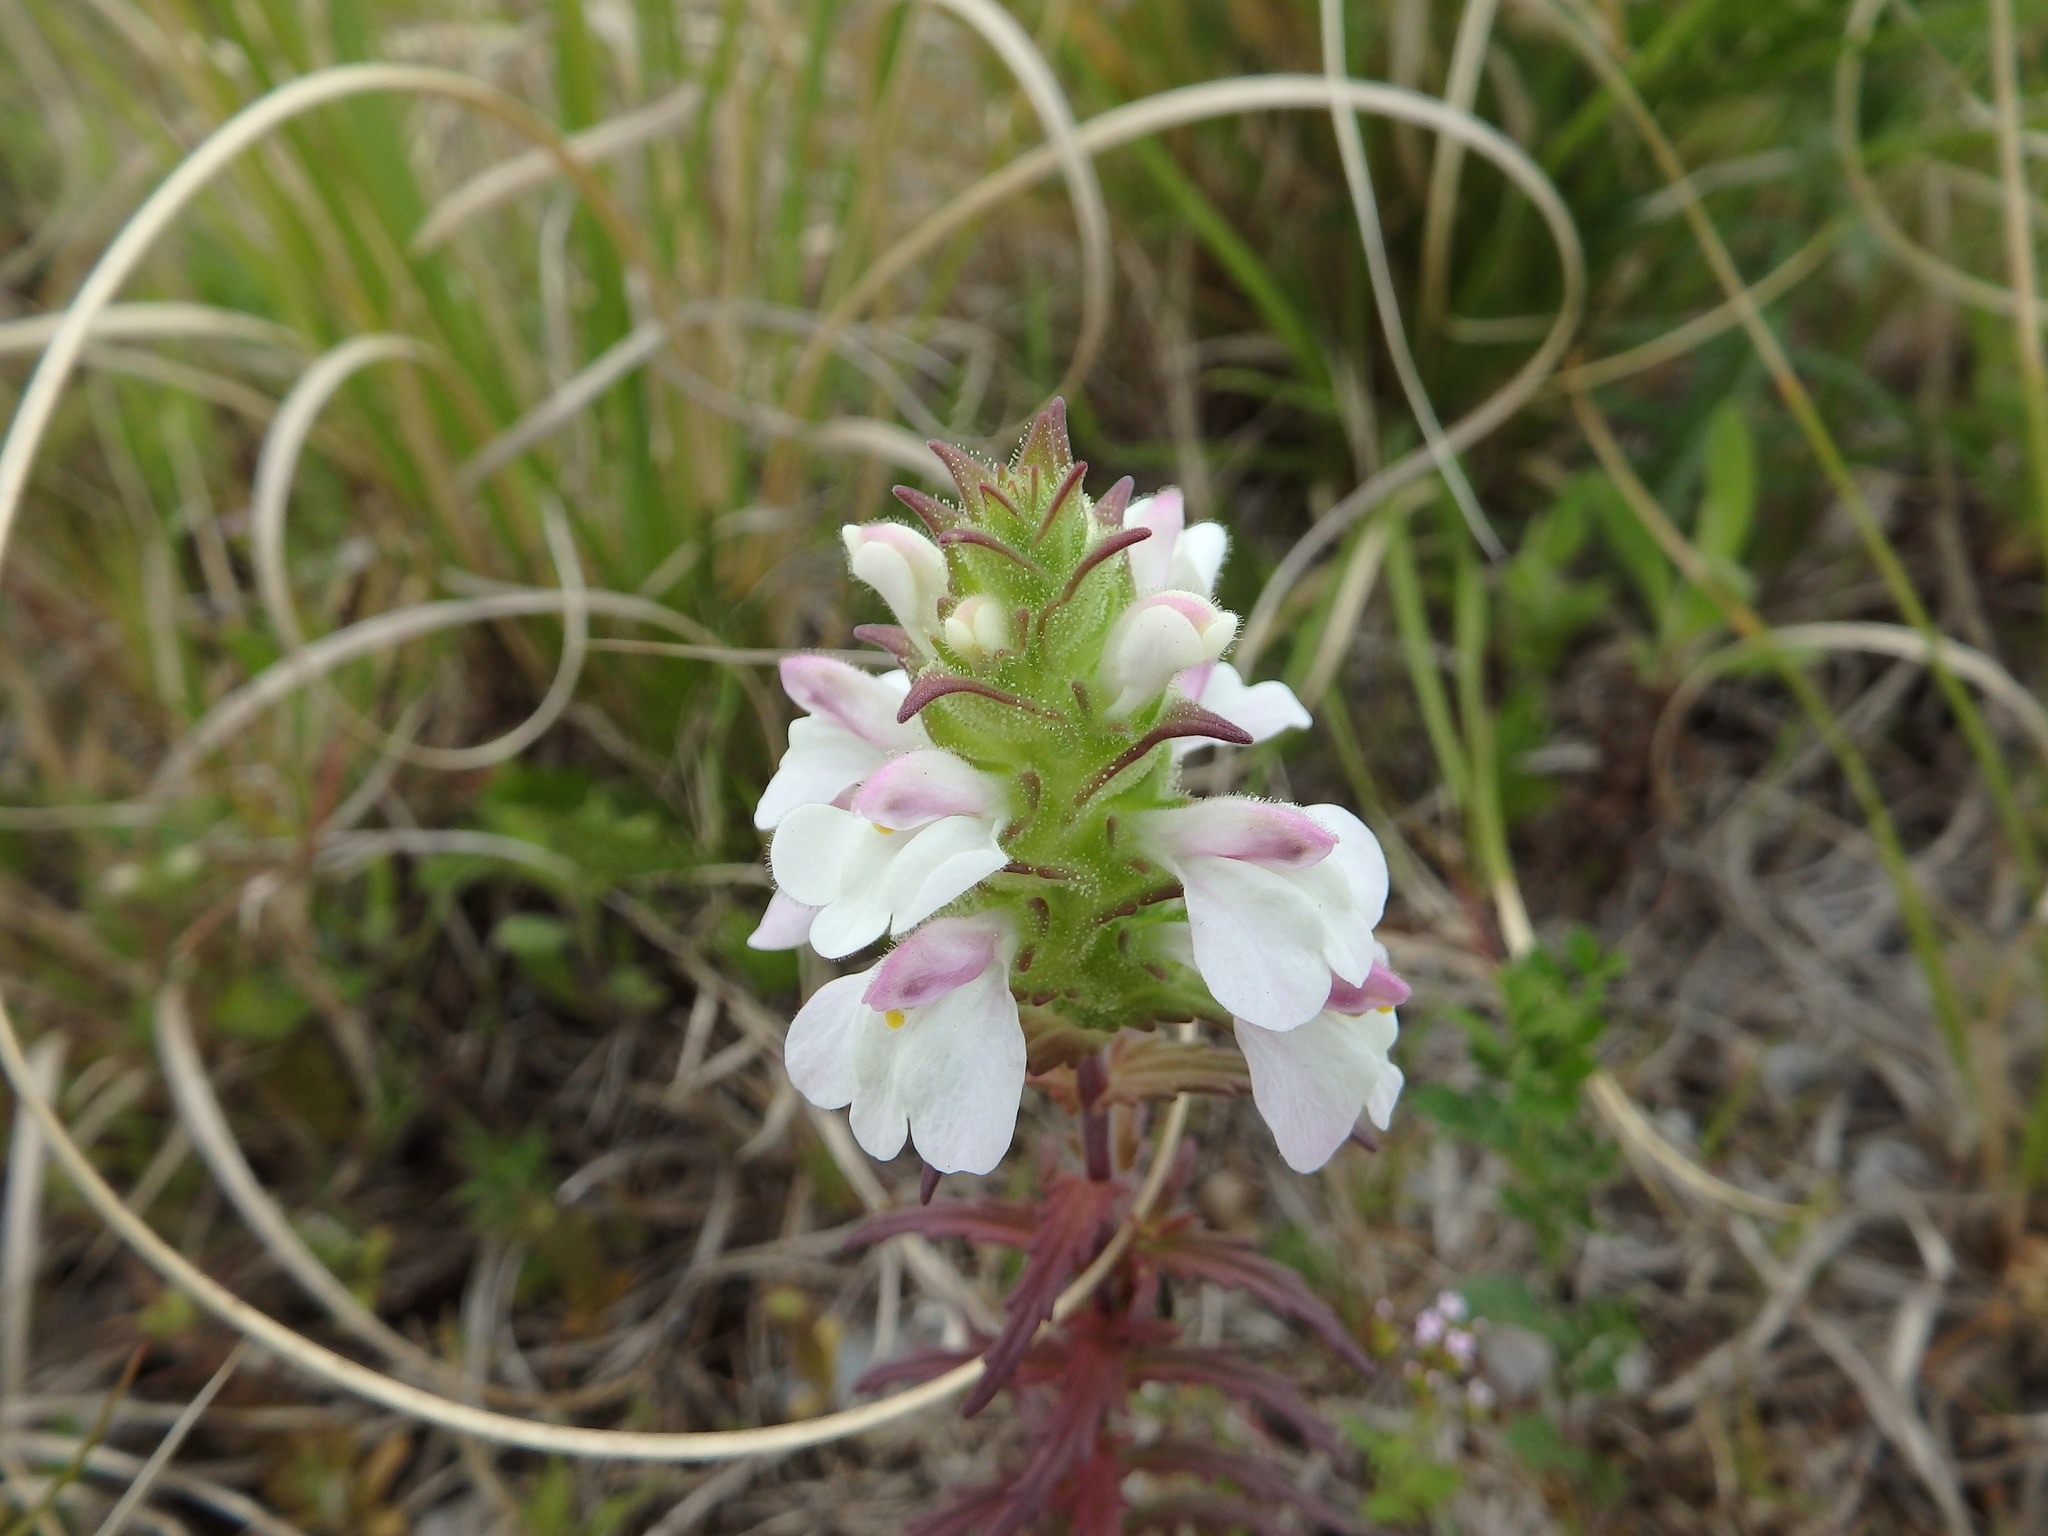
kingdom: Plantae
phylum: Tracheophyta
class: Magnoliopsida
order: Lamiales
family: Orobanchaceae
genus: Bellardia
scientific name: Bellardia trixago
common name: Mediterranean lineseed
